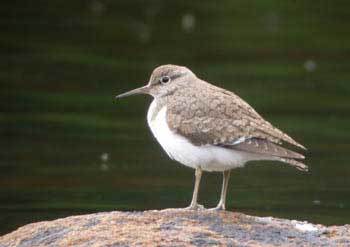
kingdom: Animalia
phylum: Chordata
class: Aves
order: Charadriiformes
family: Scolopacidae
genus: Actitis
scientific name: Actitis hypoleucos
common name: Common sandpiper
